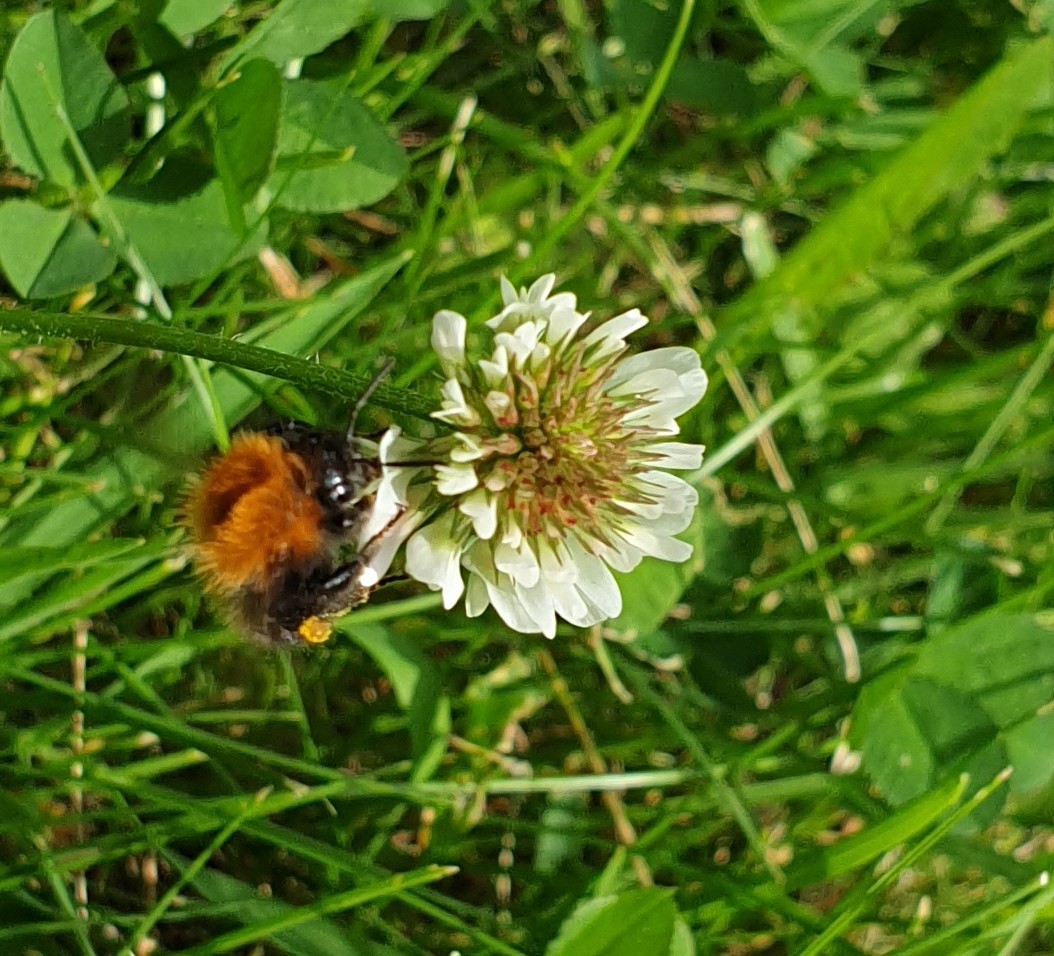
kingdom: Animalia
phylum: Arthropoda
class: Insecta
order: Hymenoptera
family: Apidae
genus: Bombus
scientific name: Bombus hypnorum
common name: New garden bumblebee
